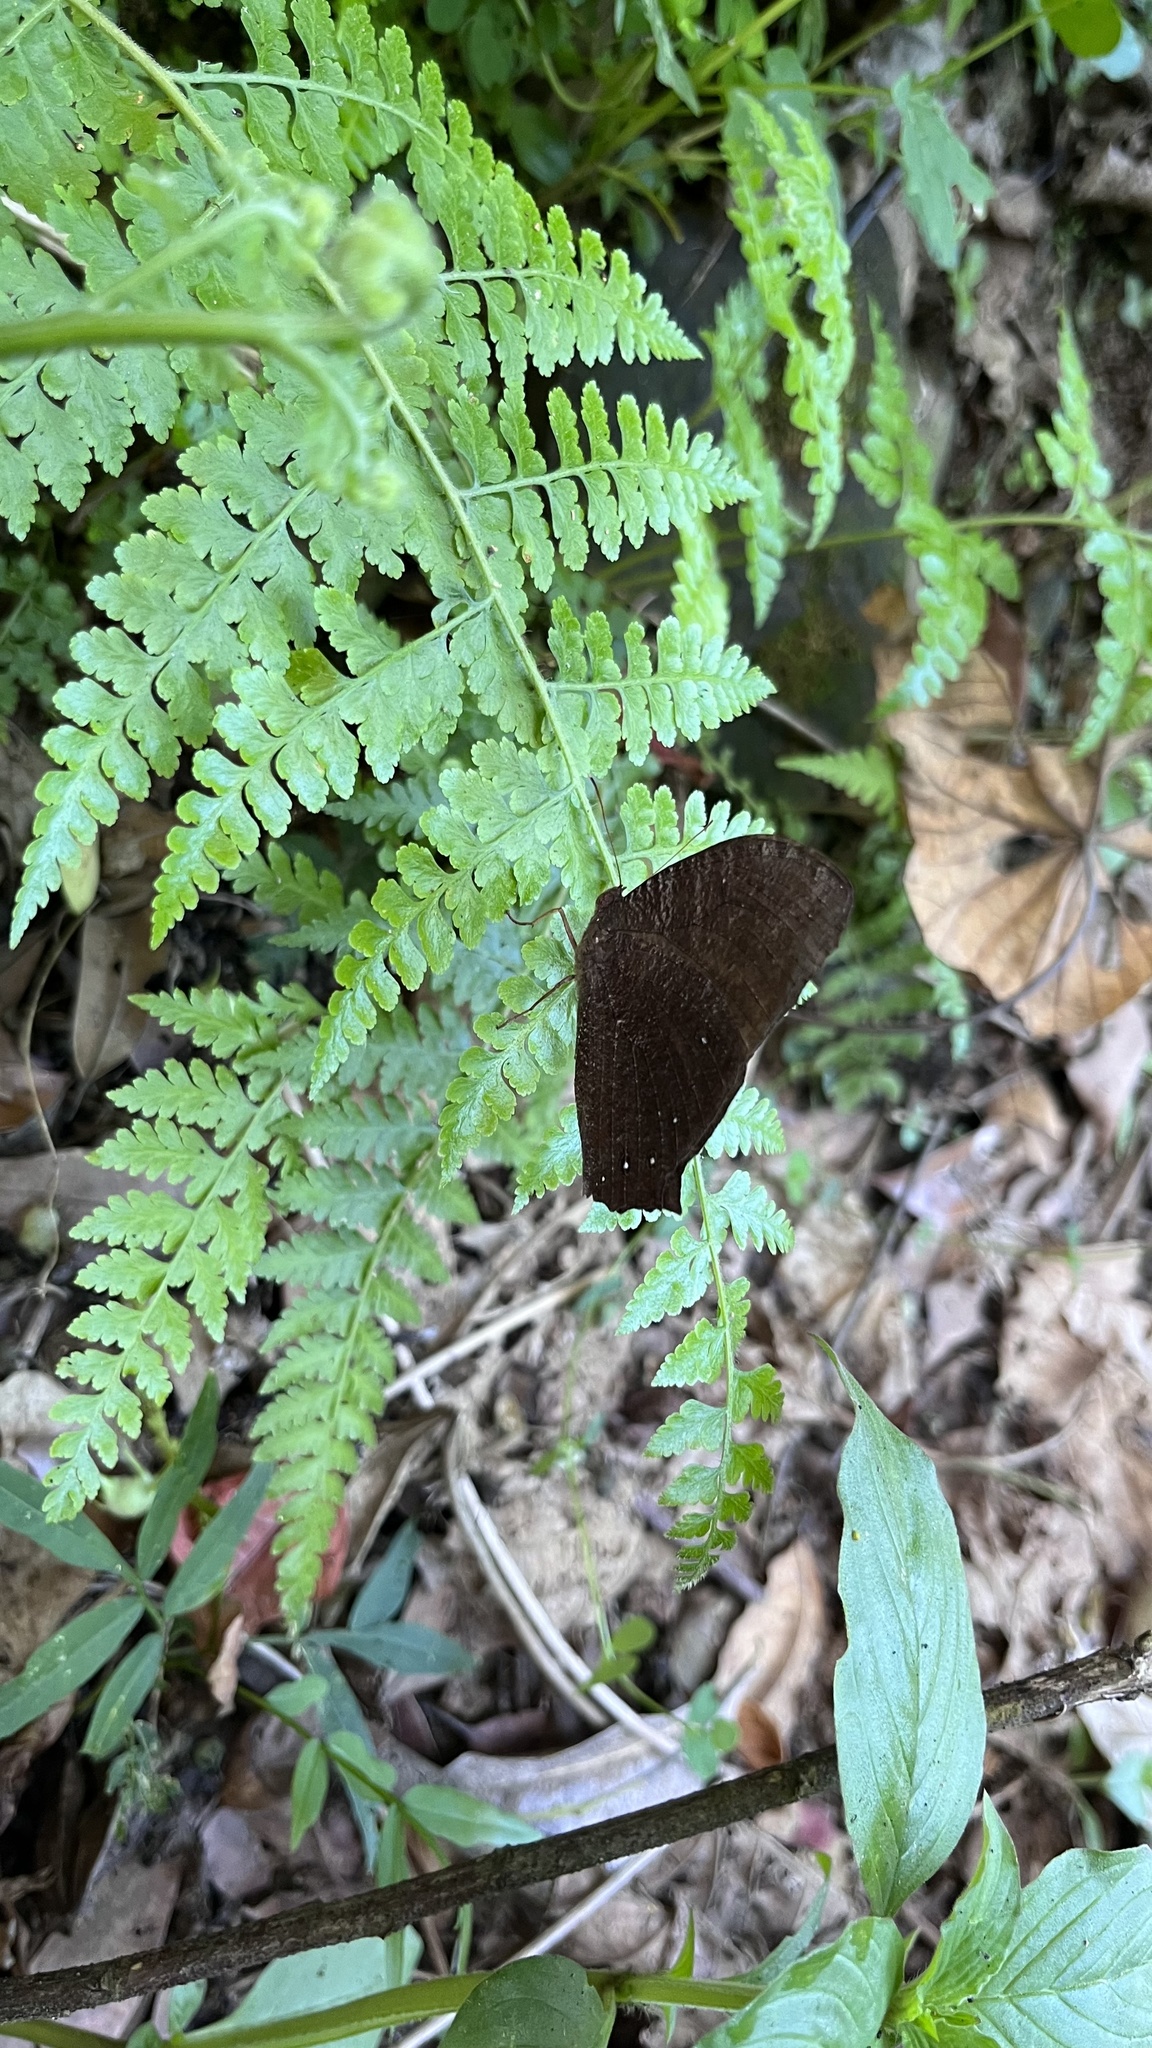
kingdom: Animalia
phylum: Arthropoda
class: Insecta
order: Lepidoptera
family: Nymphalidae
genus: Melanitis
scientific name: Melanitis phedima
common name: Dark evening brown
